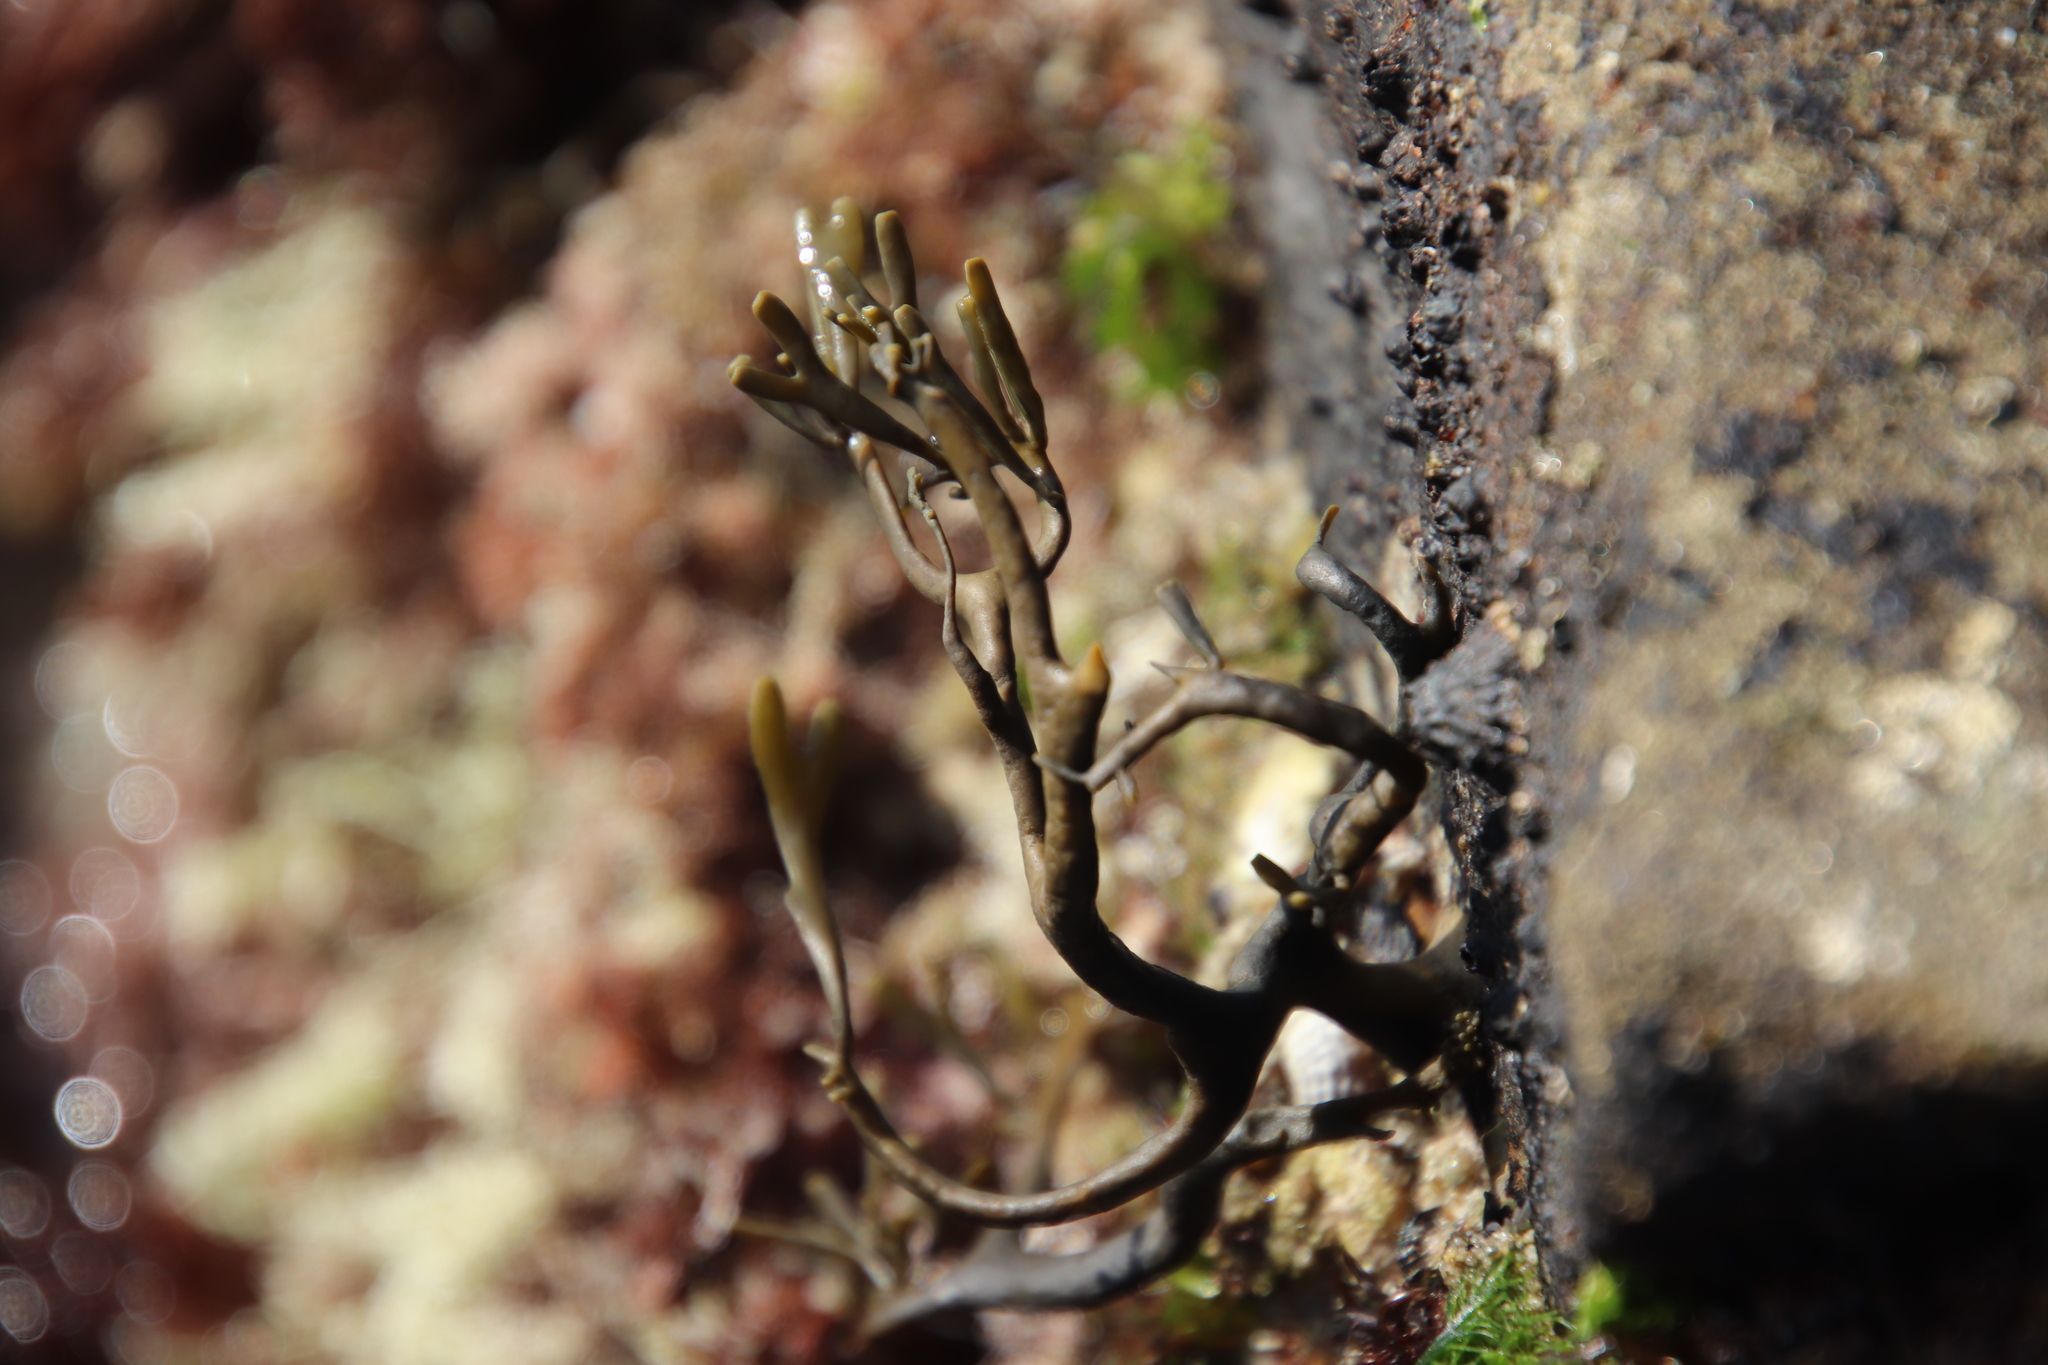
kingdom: Chromista
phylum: Ochrophyta
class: Phaeophyceae
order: Fucales
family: Fucaceae
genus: Silvetia
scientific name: Silvetia
